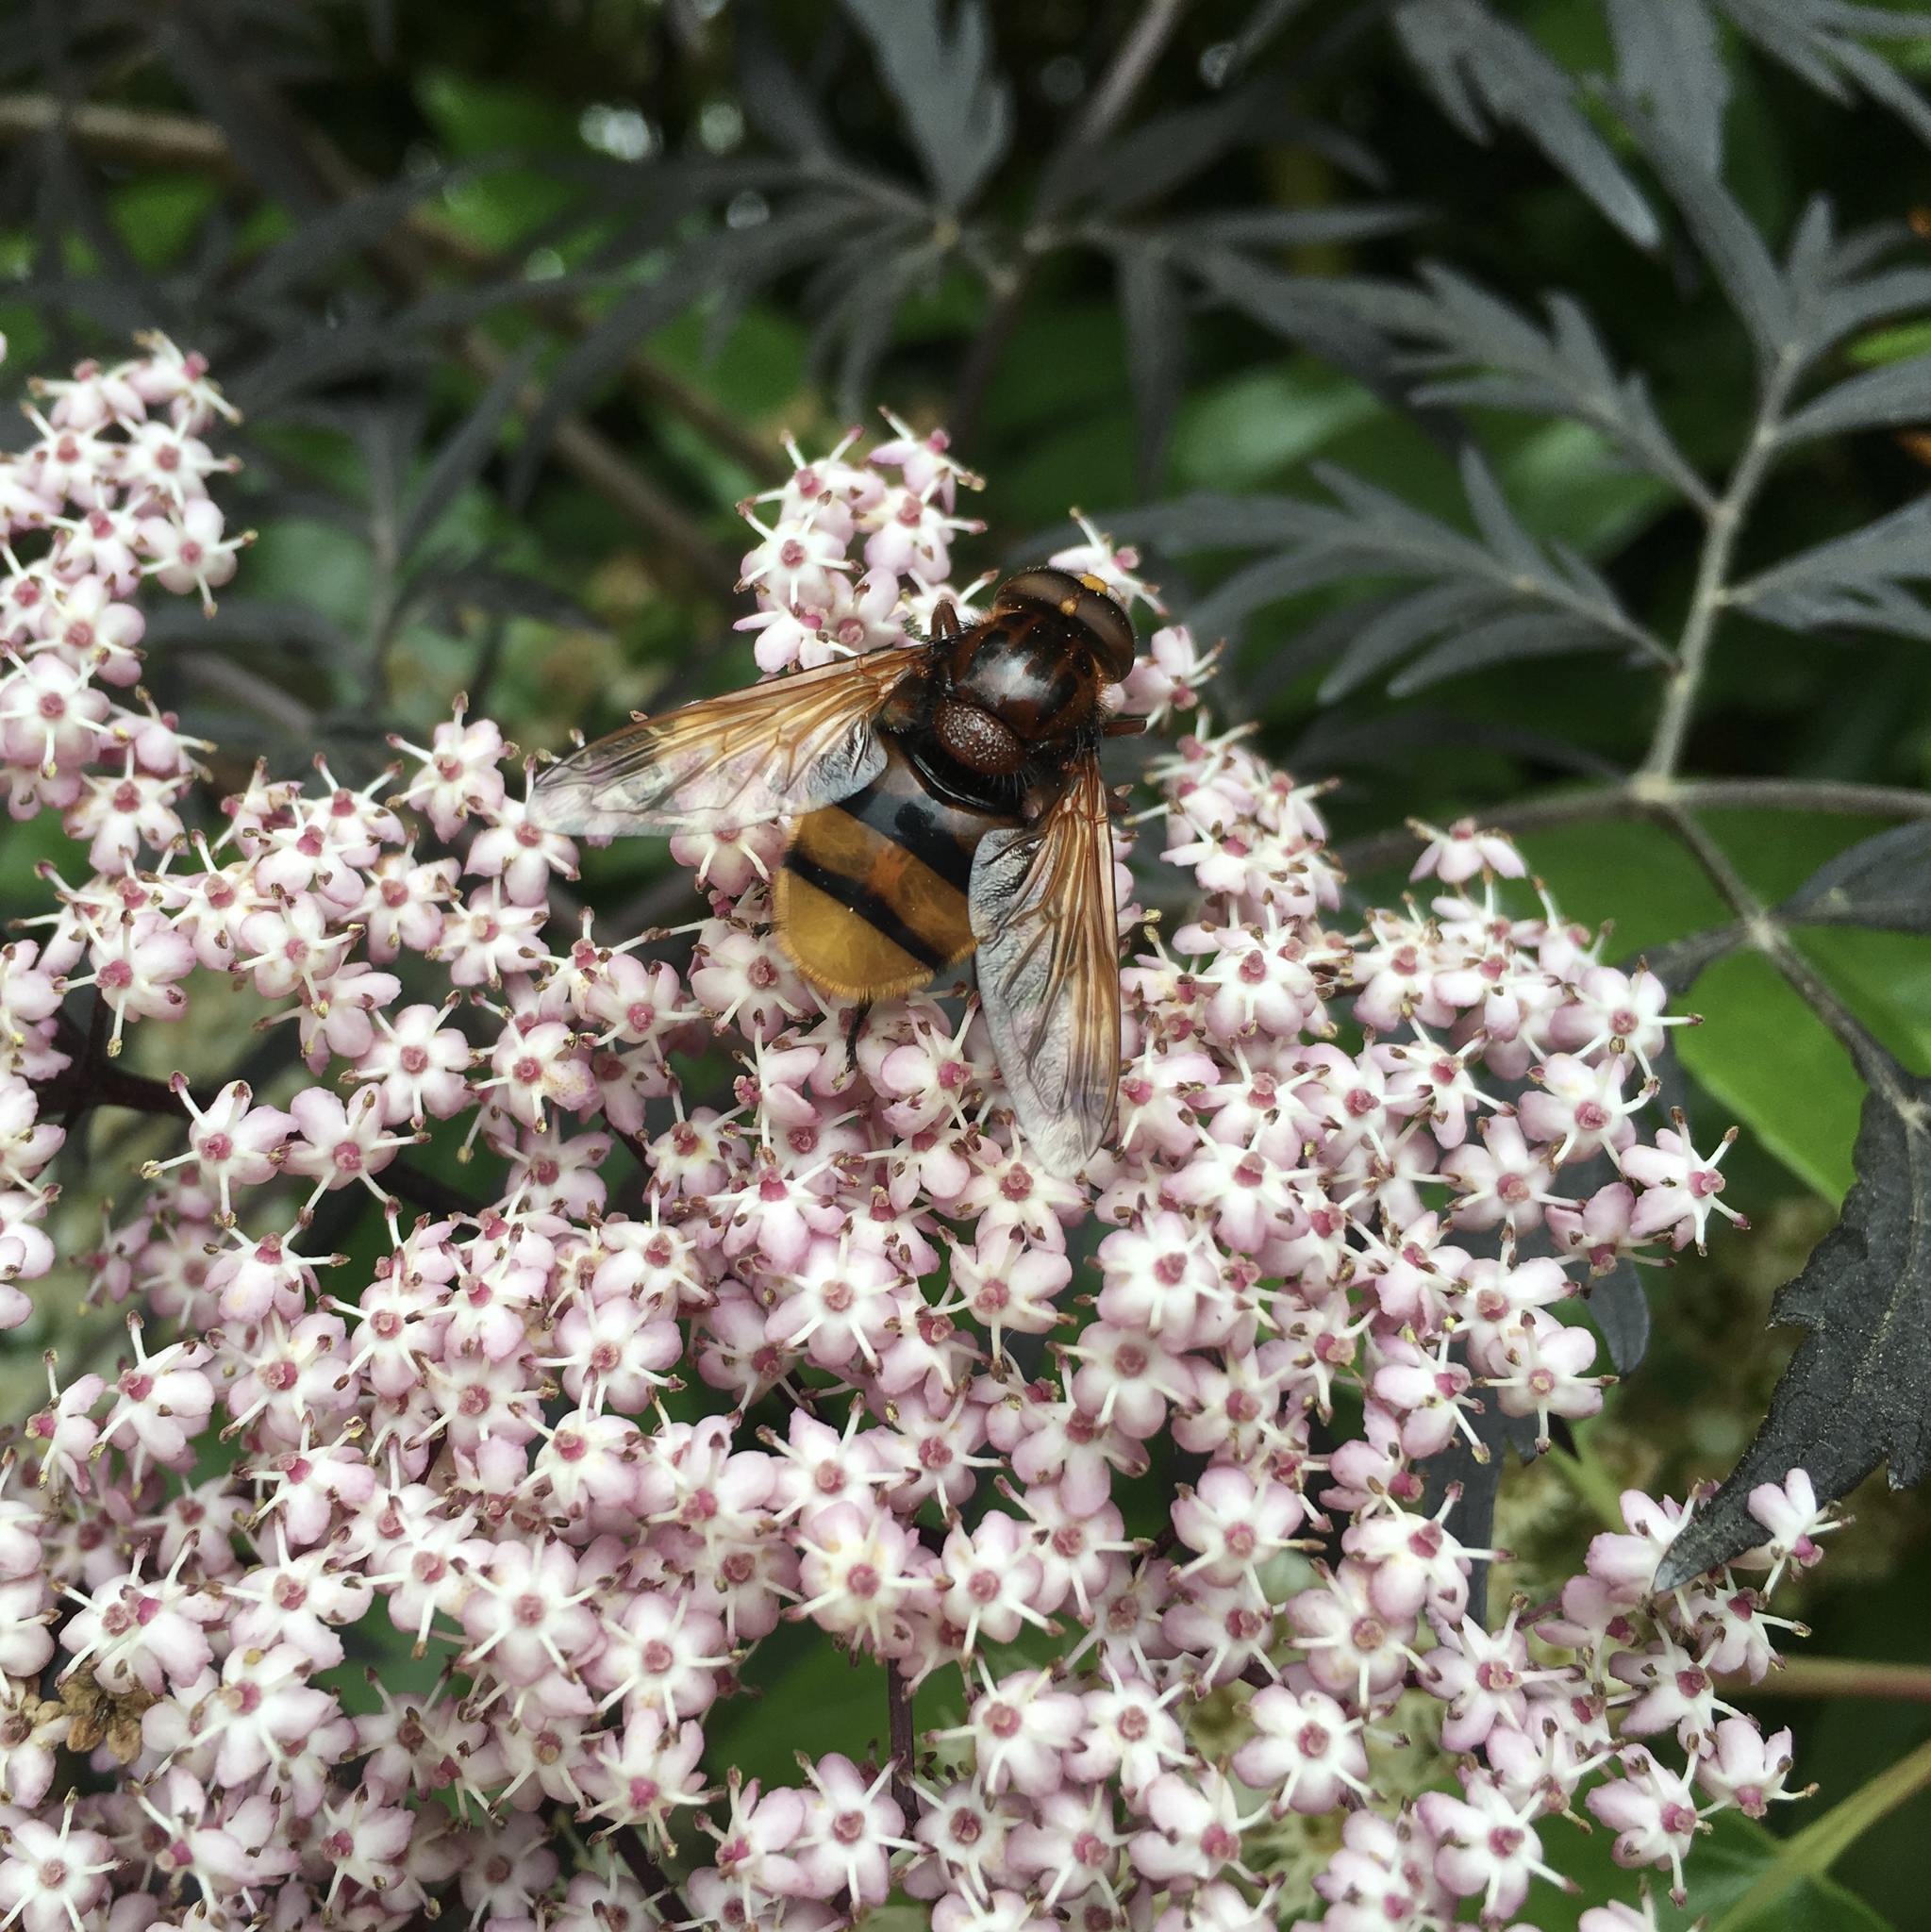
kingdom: Animalia
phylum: Arthropoda
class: Insecta
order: Diptera
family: Syrphidae
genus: Volucella
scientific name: Volucella zonaria
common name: Hornet hoverfly
